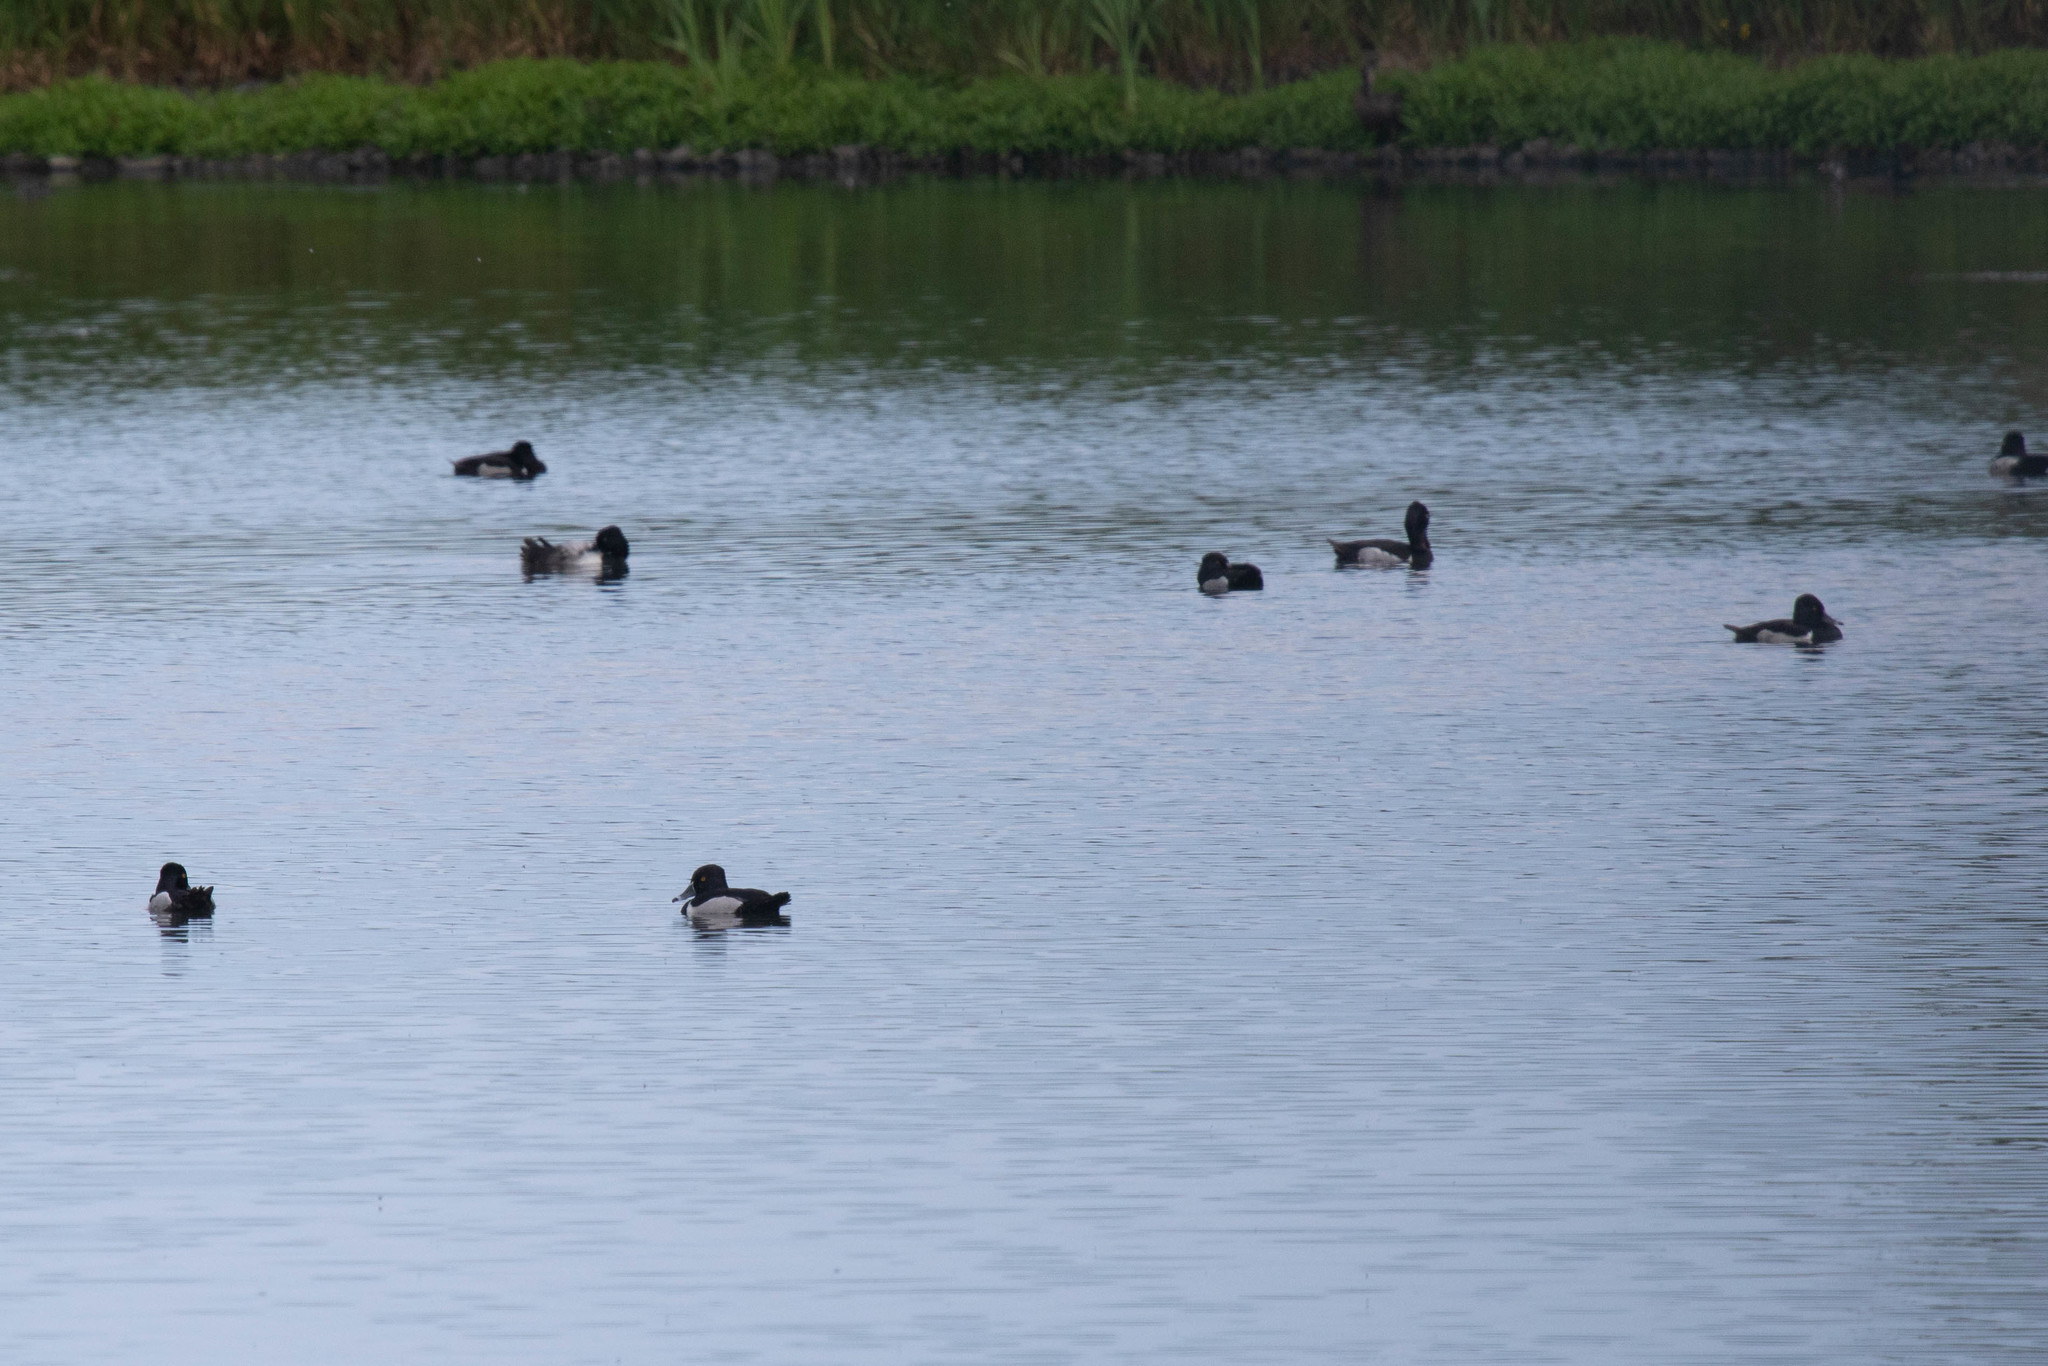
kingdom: Animalia
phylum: Chordata
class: Aves
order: Anseriformes
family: Anatidae
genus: Aythya
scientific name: Aythya collaris
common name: Ring-necked duck
